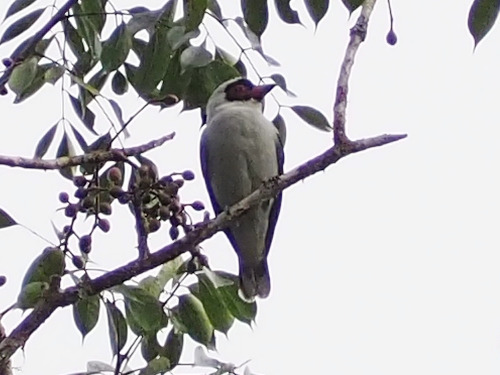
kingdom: Animalia
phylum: Chordata
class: Aves
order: Passeriformes
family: Cotingidae
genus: Tityra
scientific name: Tityra semifasciata
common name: Masked tityra
